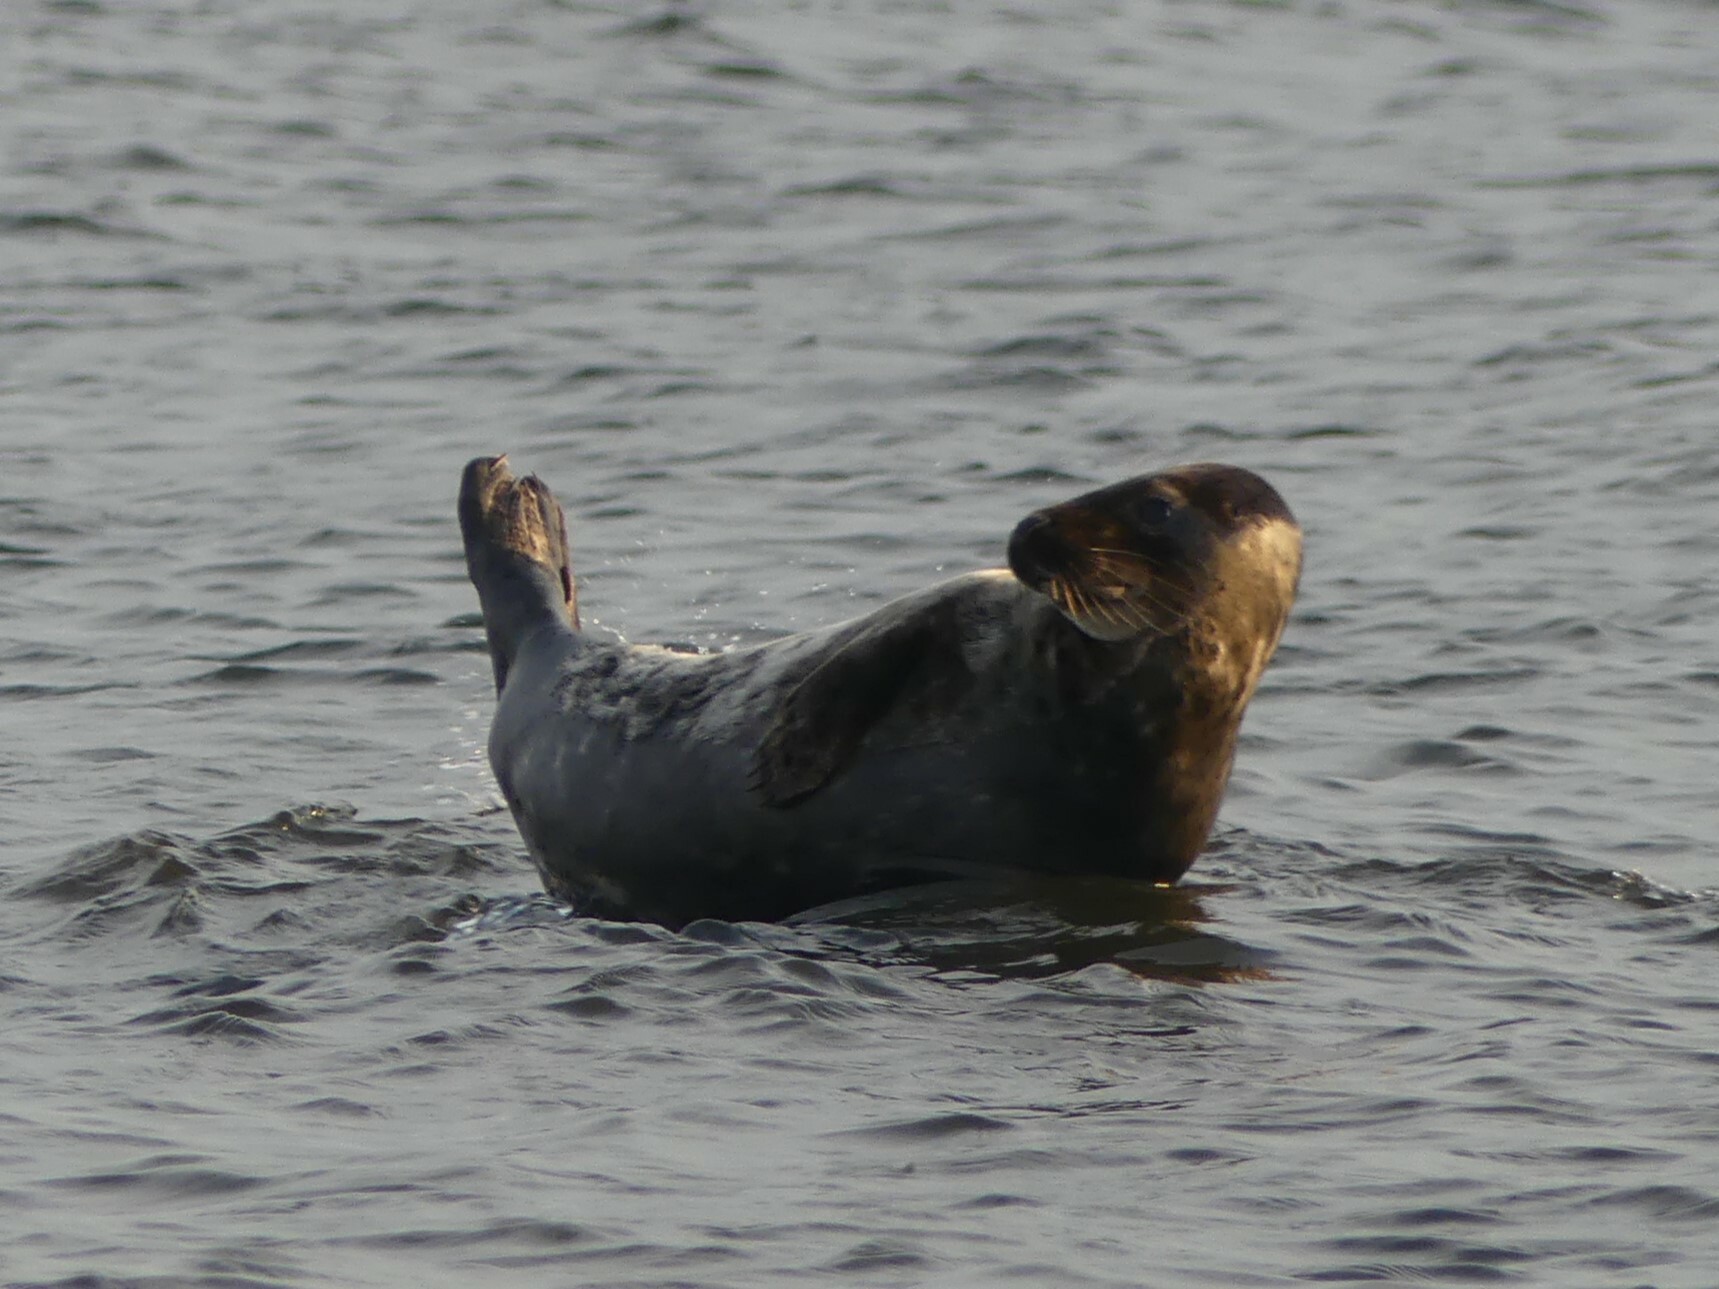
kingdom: Animalia
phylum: Chordata
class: Mammalia
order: Carnivora
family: Phocidae
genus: Halichoerus
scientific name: Halichoerus grypus
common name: Grey seal
